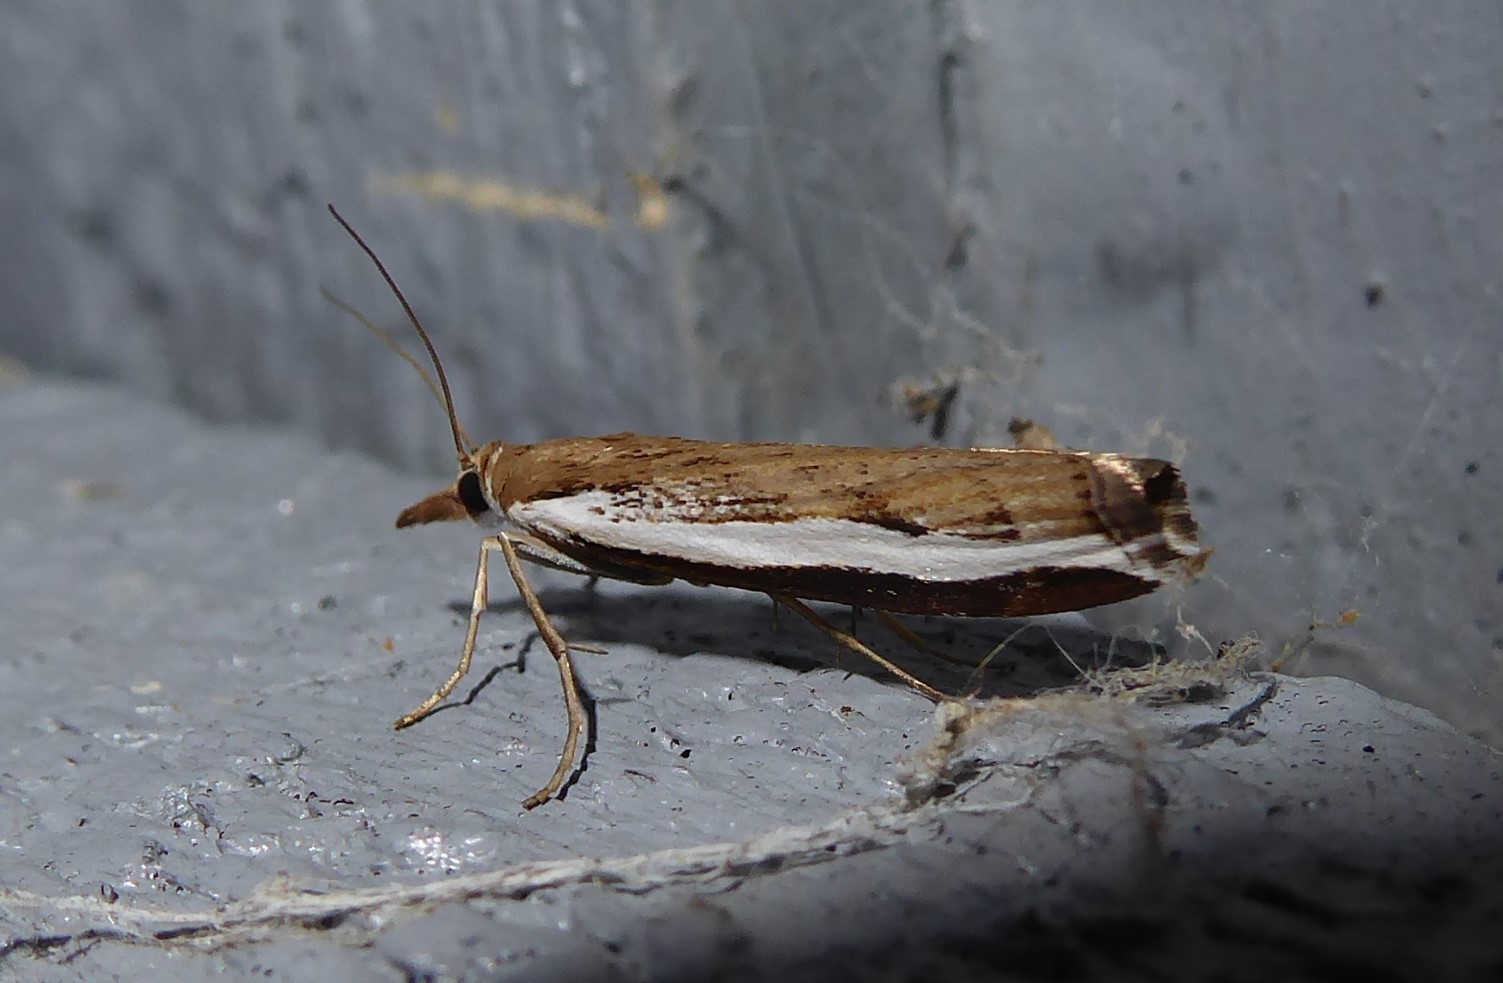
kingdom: Animalia
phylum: Arthropoda
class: Insecta
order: Lepidoptera
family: Crambidae
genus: Orocrambus
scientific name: Orocrambus flexuosellus
